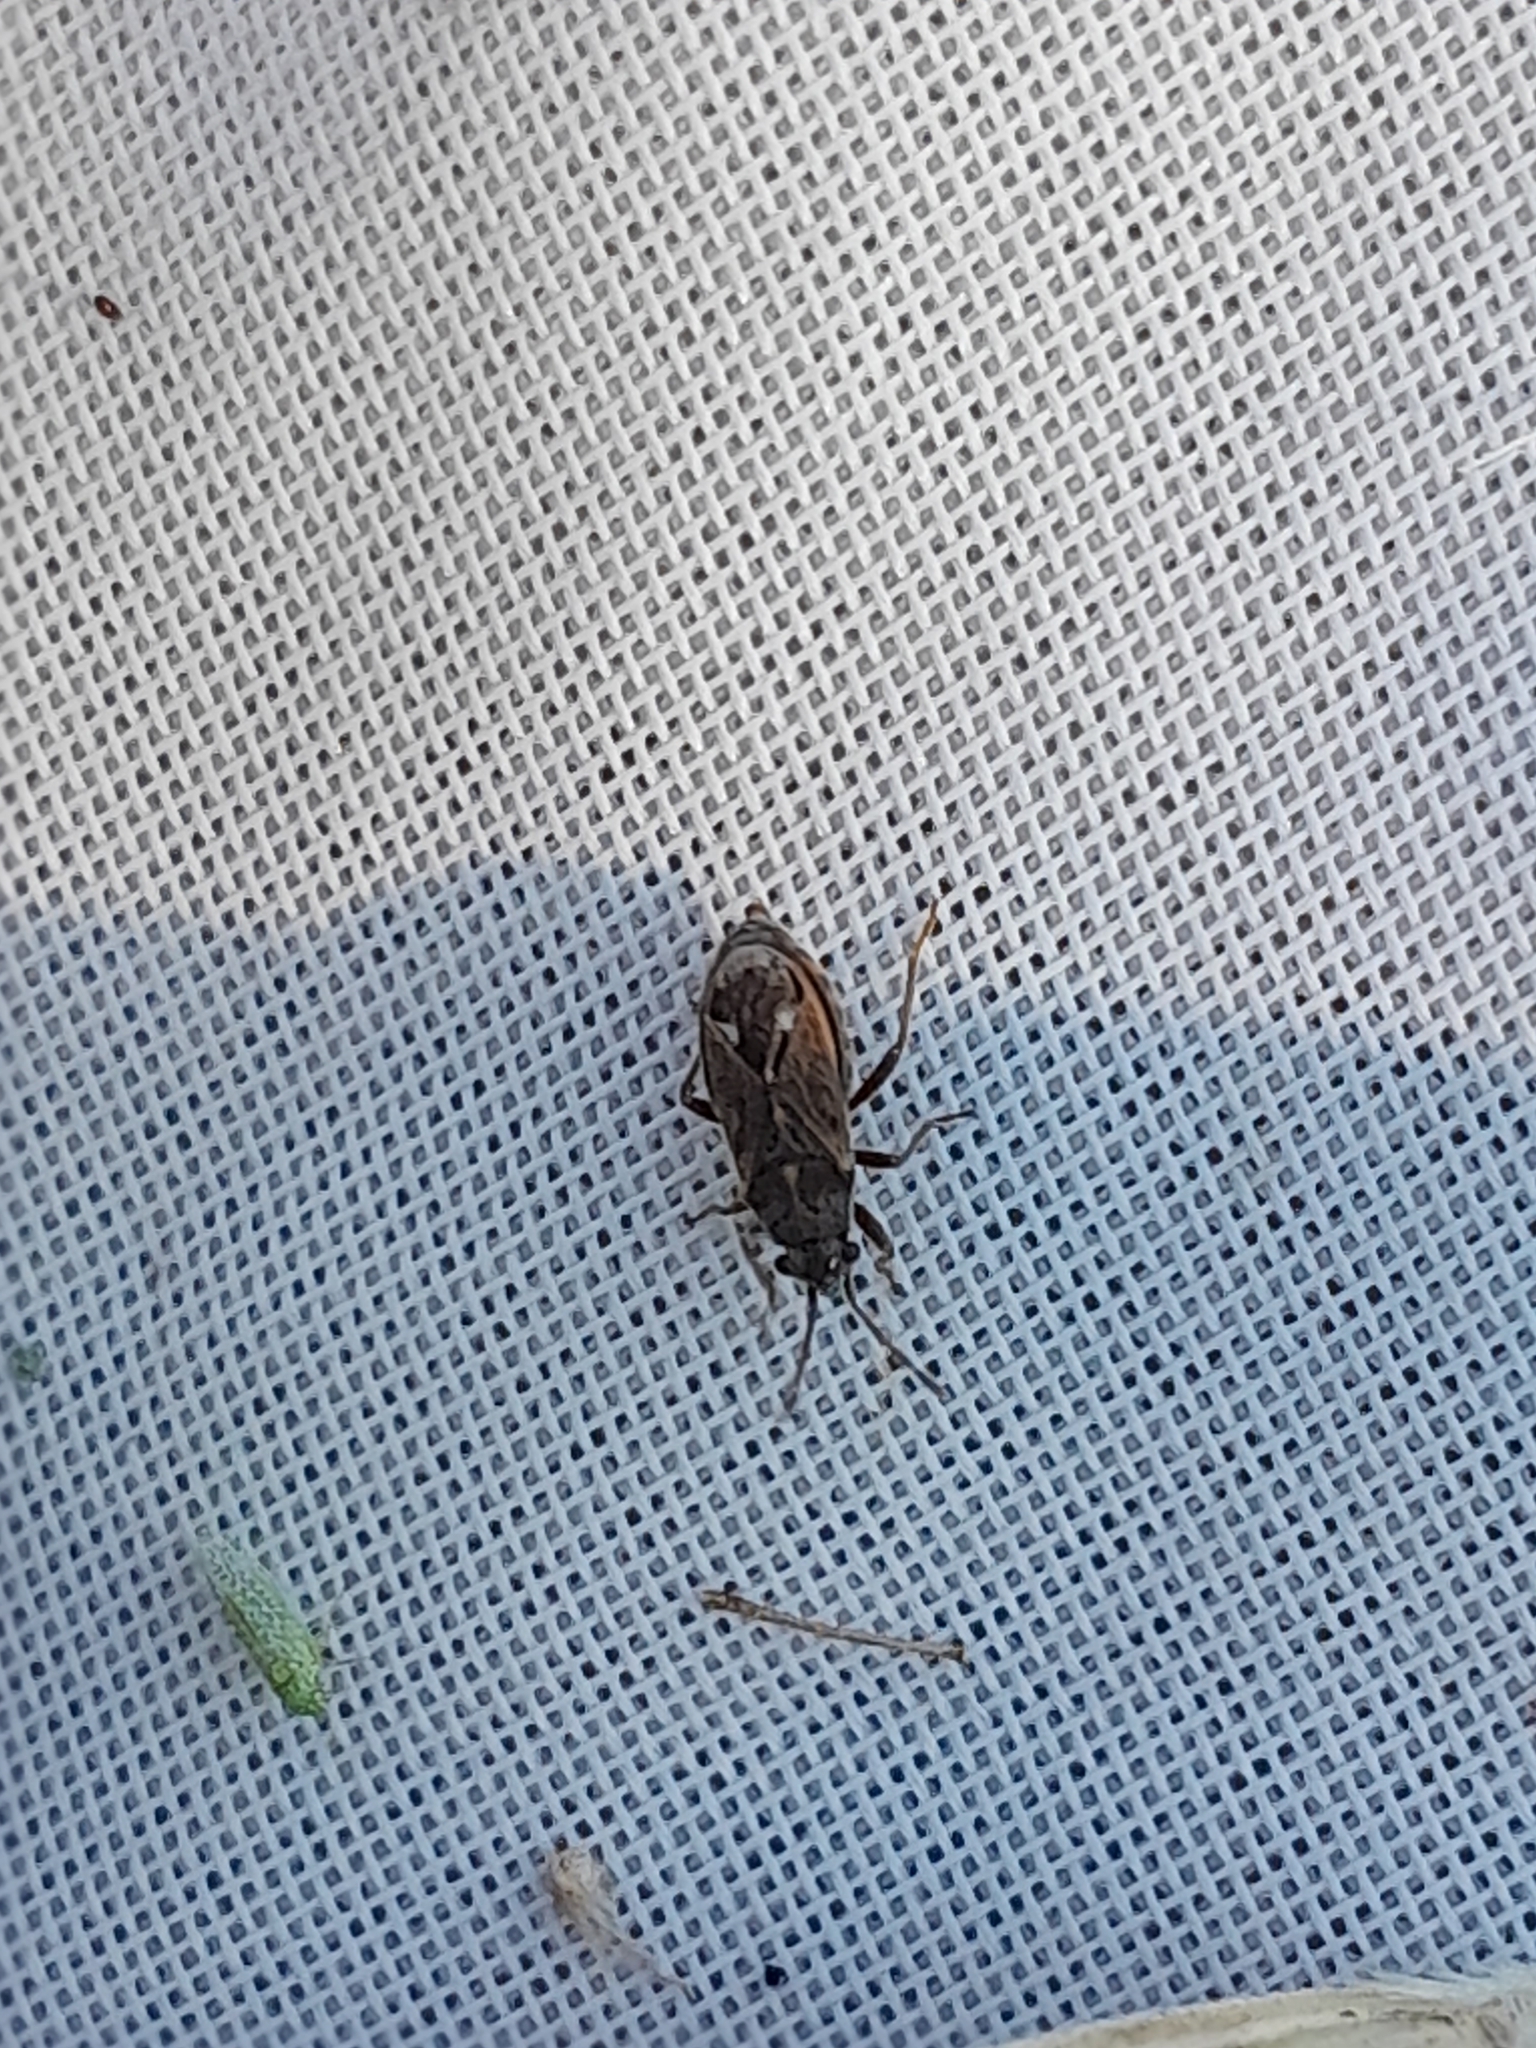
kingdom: Animalia
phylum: Arthropoda
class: Insecta
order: Hemiptera
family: Lygaeidae
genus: Lygaeosoma
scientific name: Lygaeosoma sardeum
